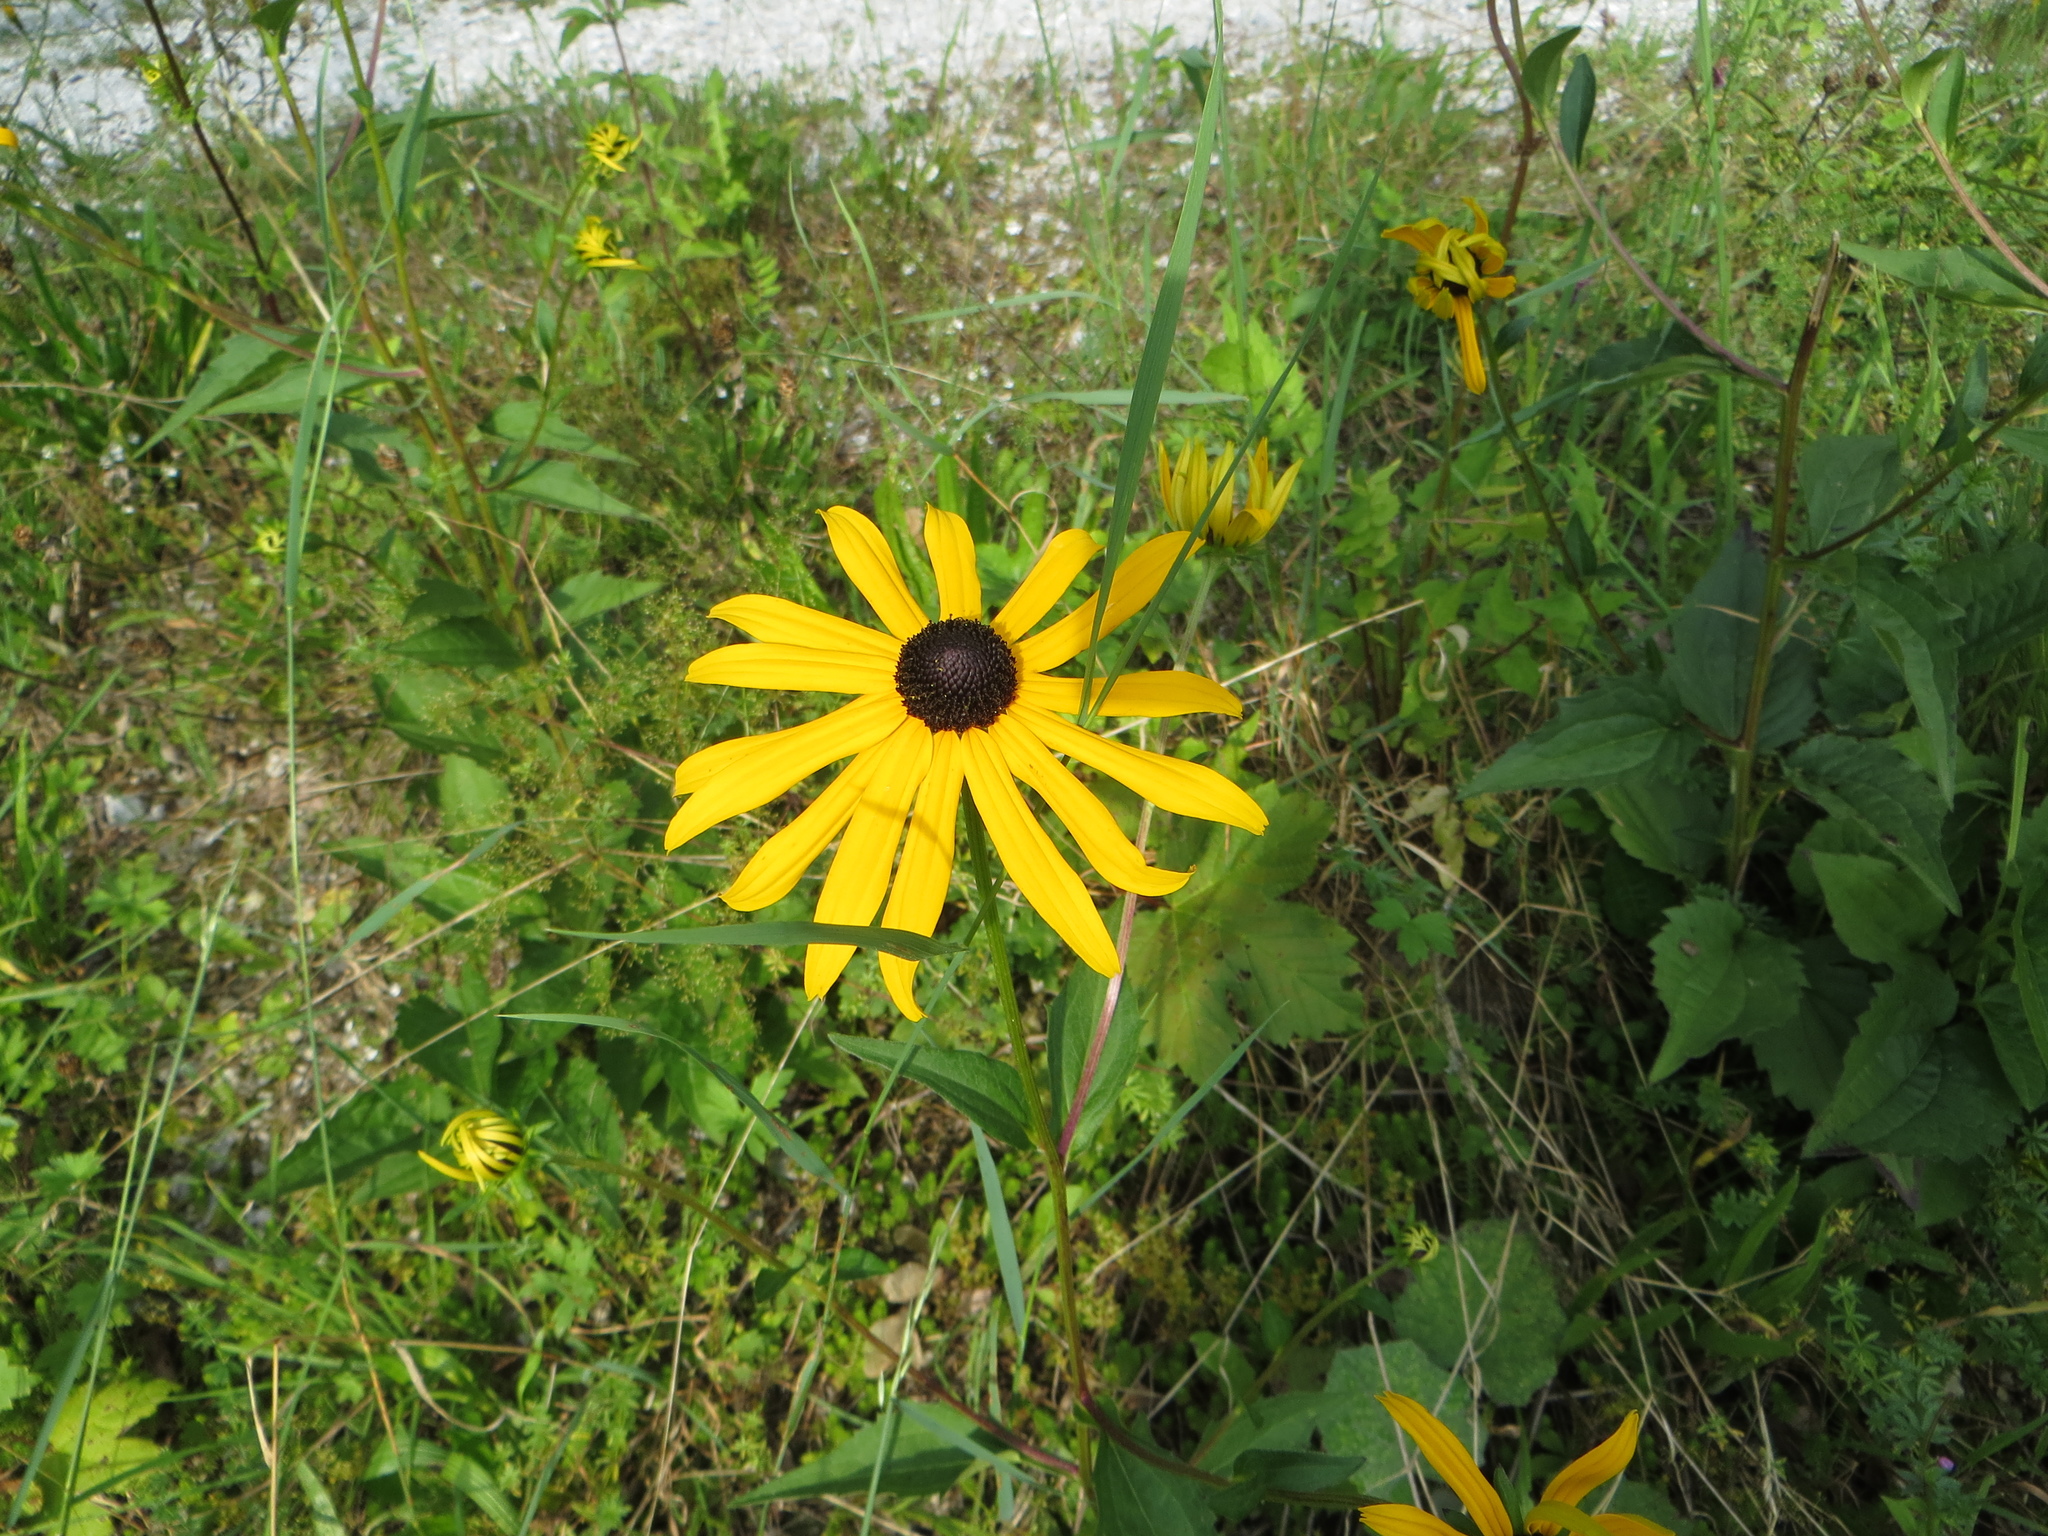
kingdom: Plantae
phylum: Tracheophyta
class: Magnoliopsida
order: Asterales
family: Asteraceae
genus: Rudbeckia
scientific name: Rudbeckia hirta
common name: Black-eyed-susan
